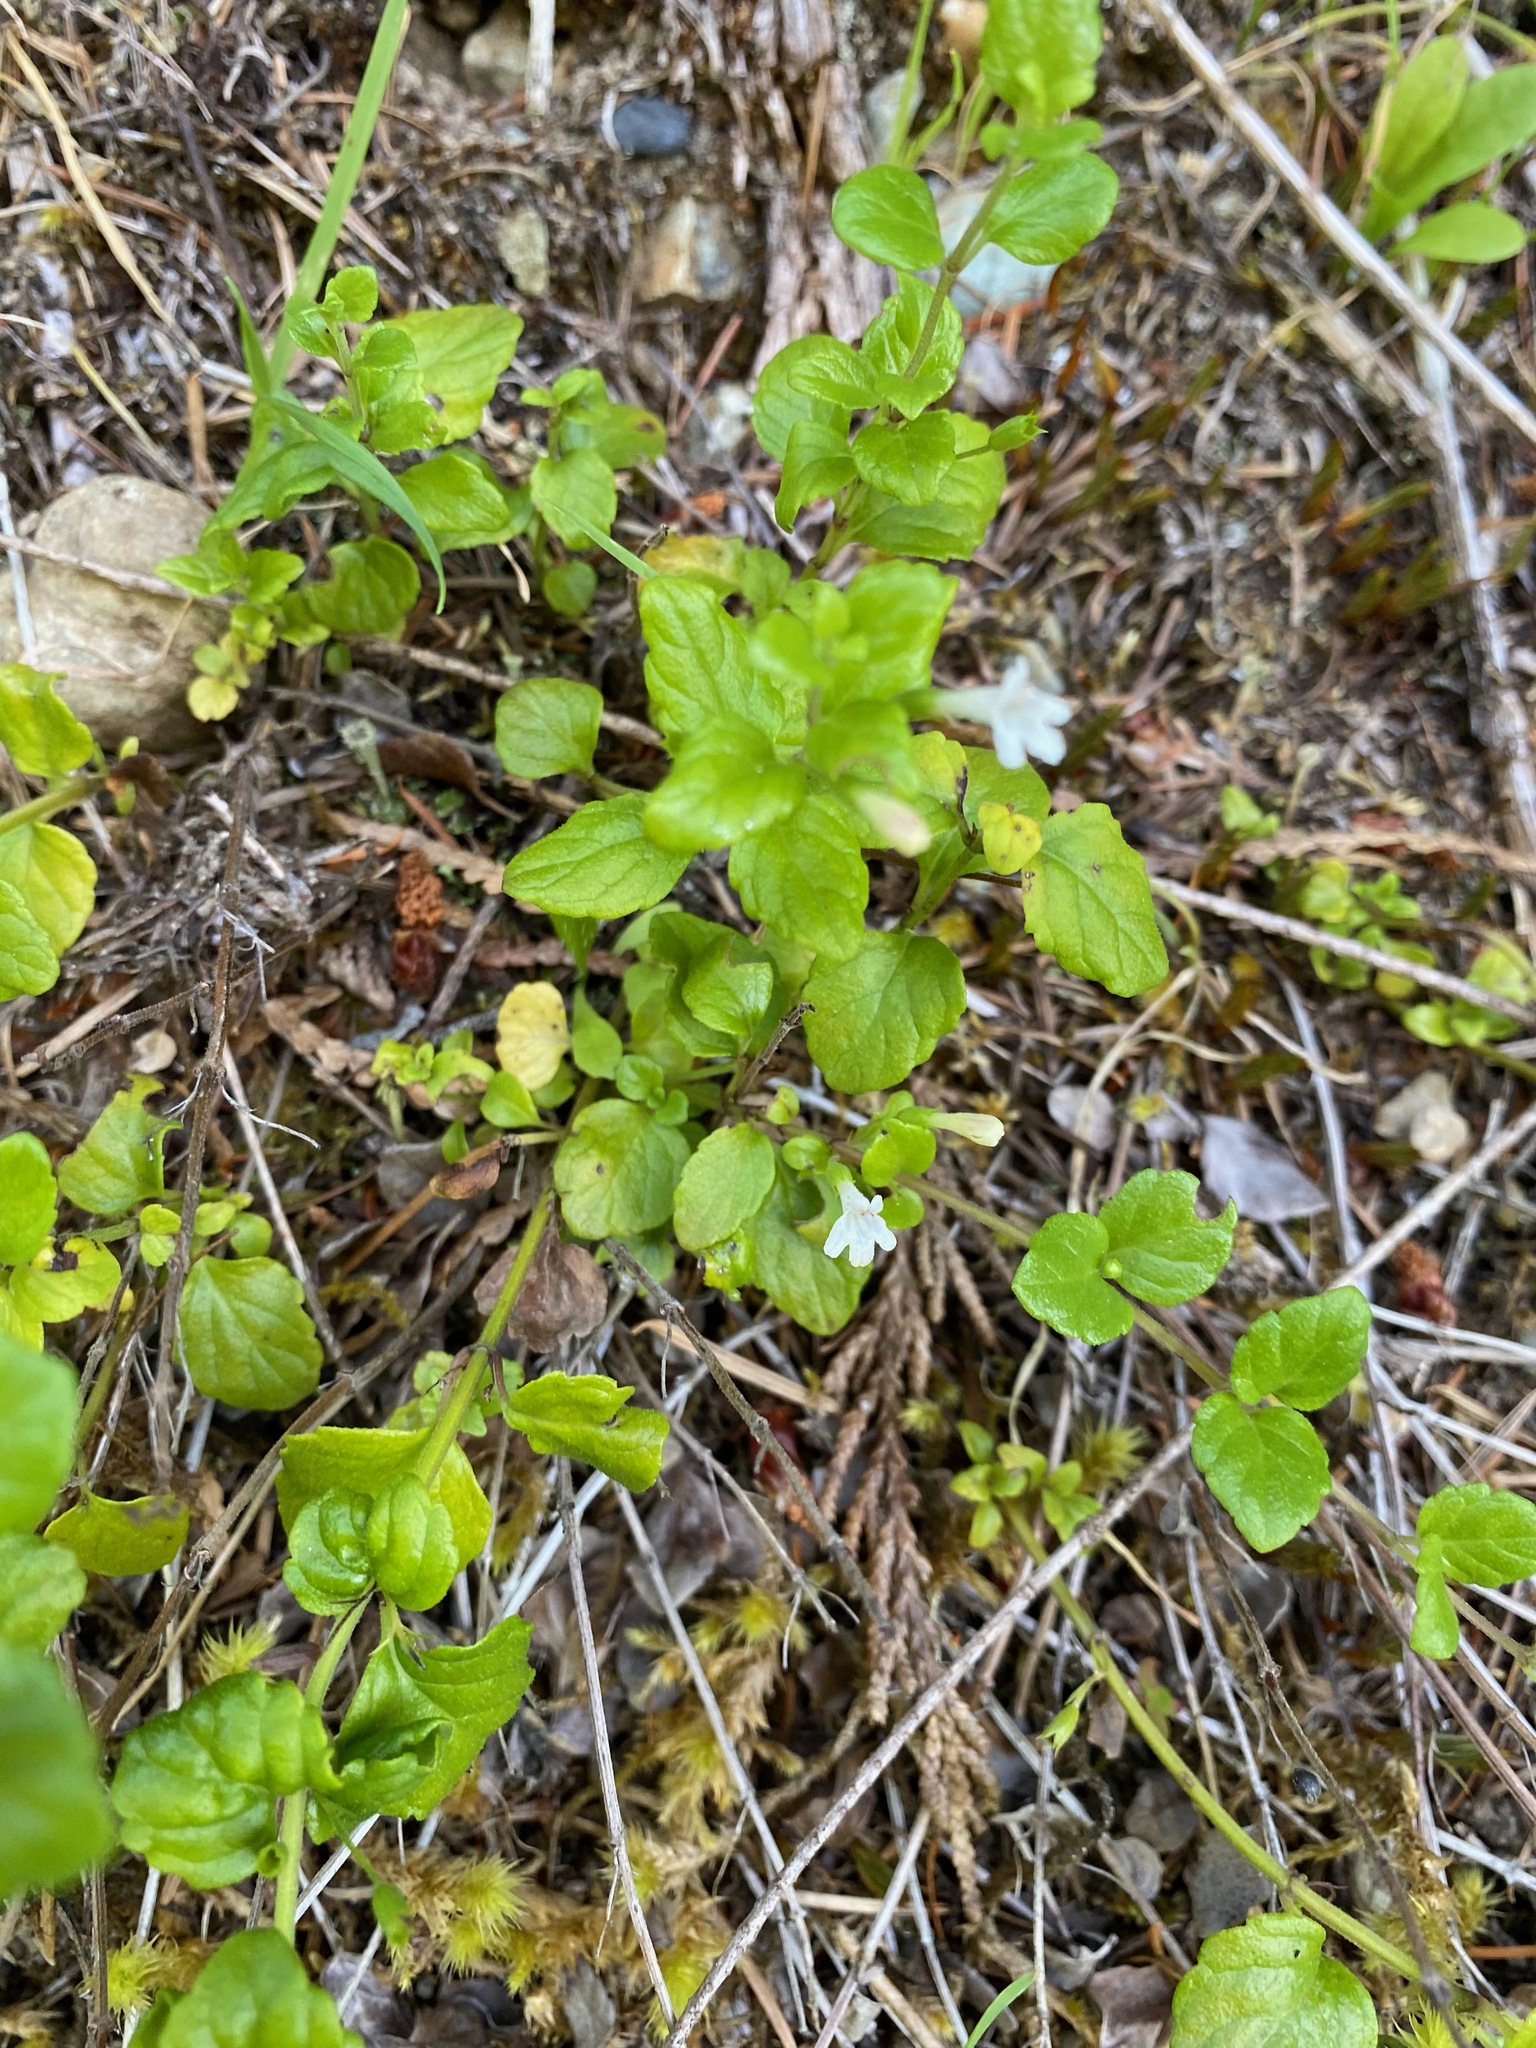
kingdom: Plantae
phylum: Tracheophyta
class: Magnoliopsida
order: Lamiales
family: Lamiaceae
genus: Micromeria
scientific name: Micromeria douglasii
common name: Yerba buena
